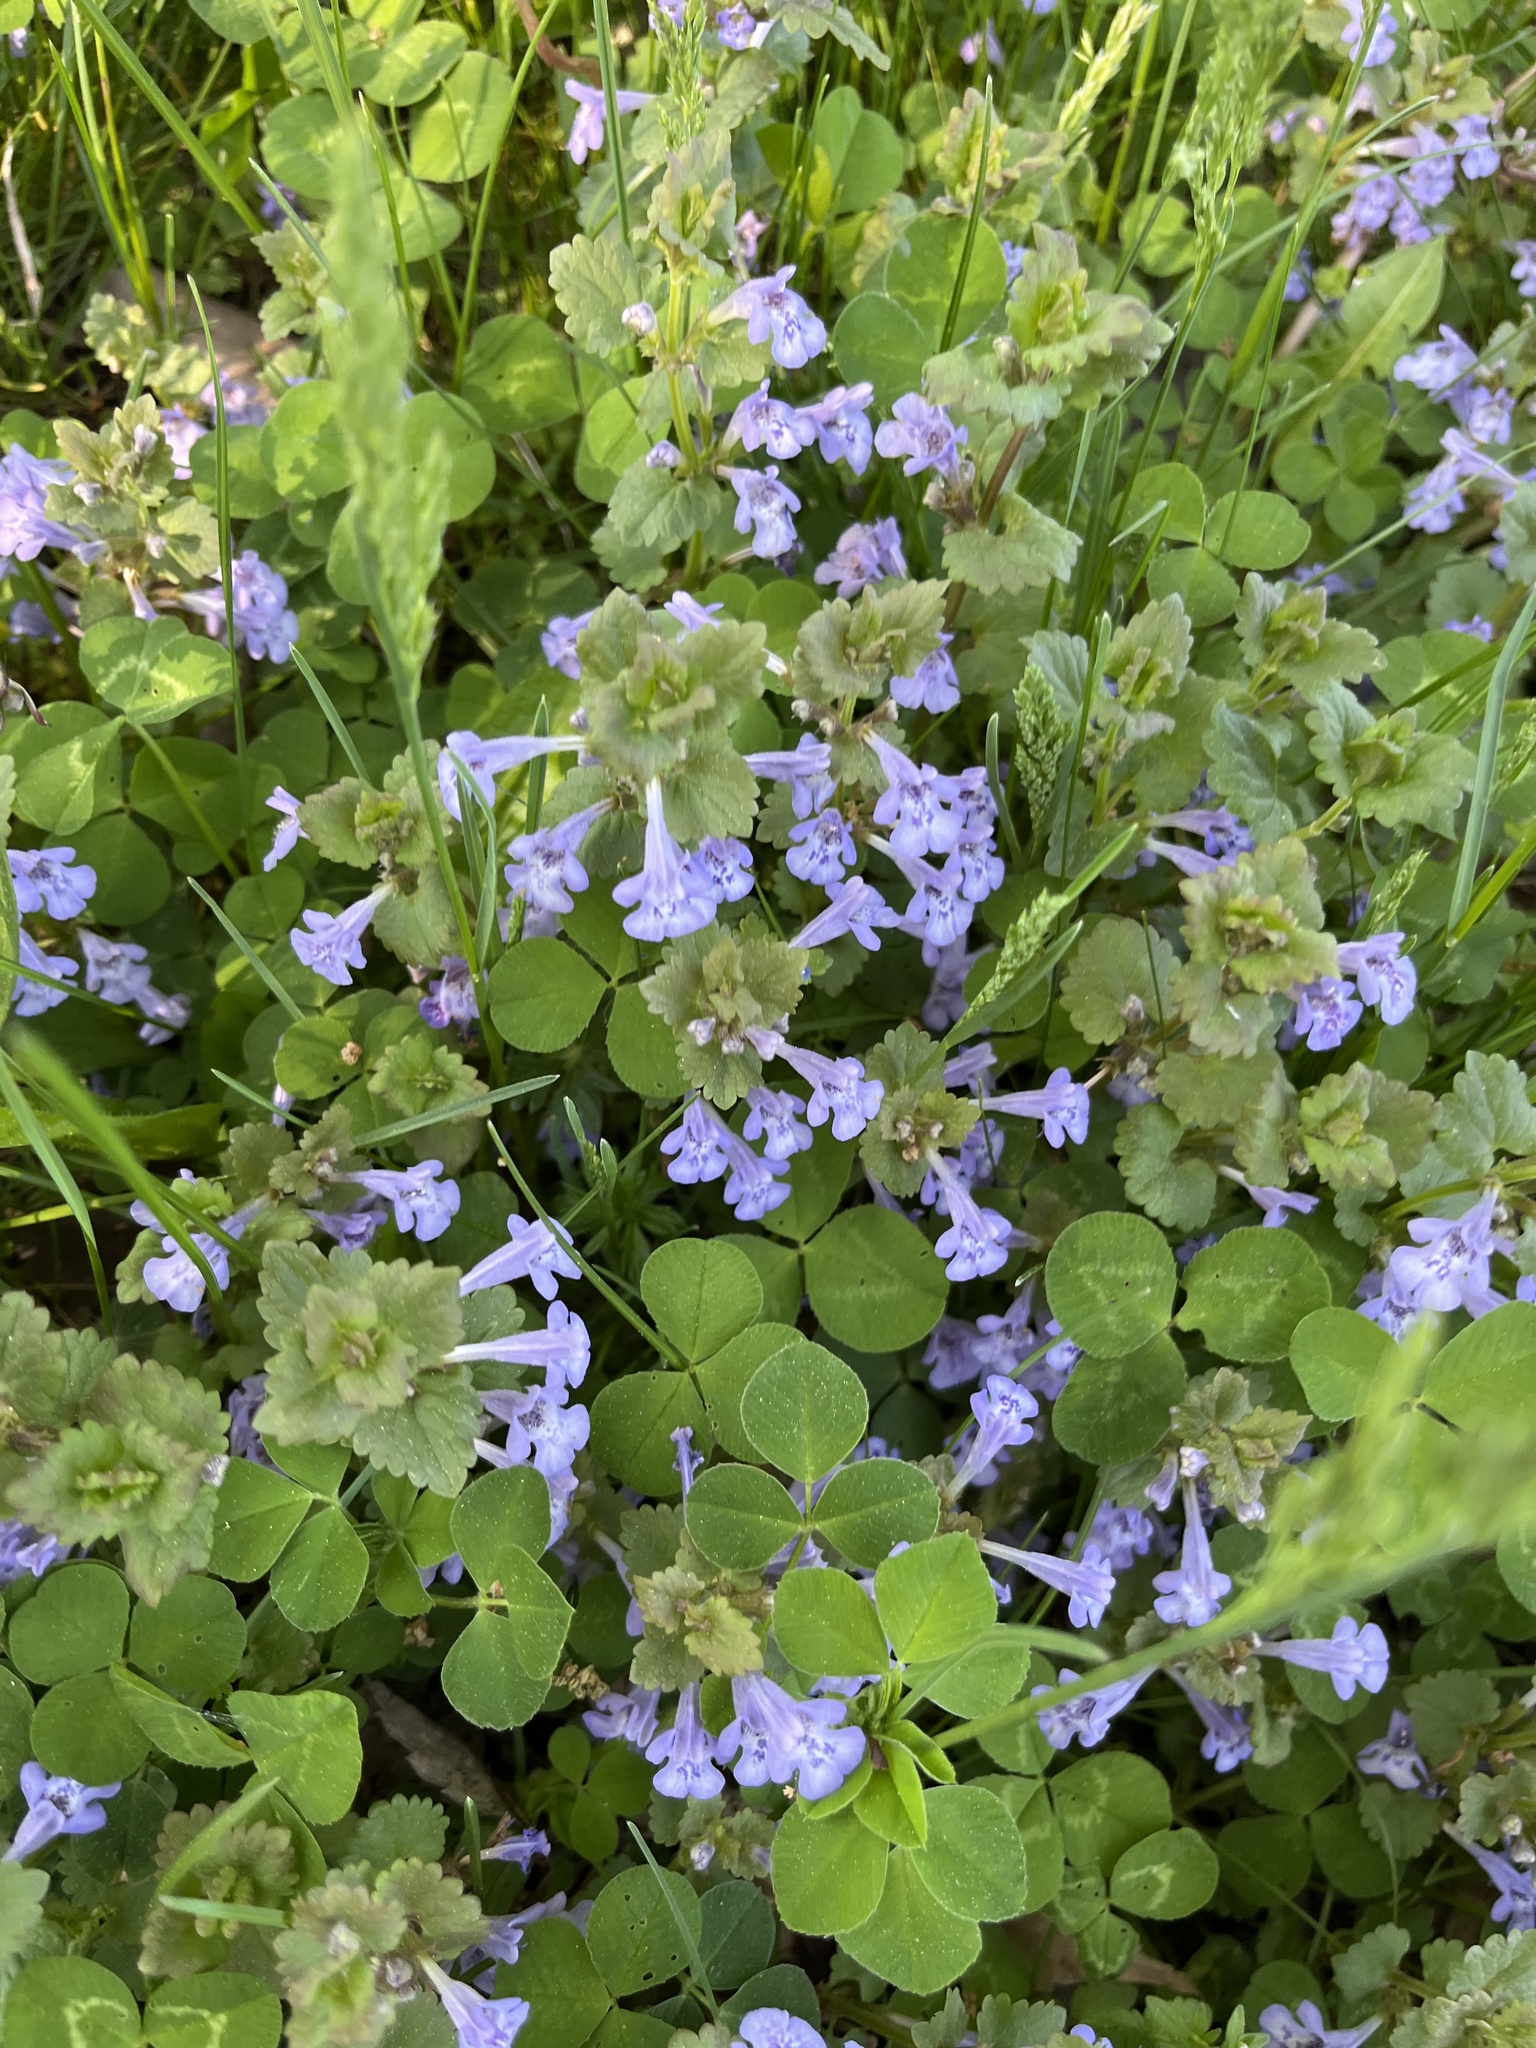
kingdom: Plantae
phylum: Tracheophyta
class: Magnoliopsida
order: Lamiales
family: Lamiaceae
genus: Glechoma
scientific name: Glechoma hederacea
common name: Ground ivy
